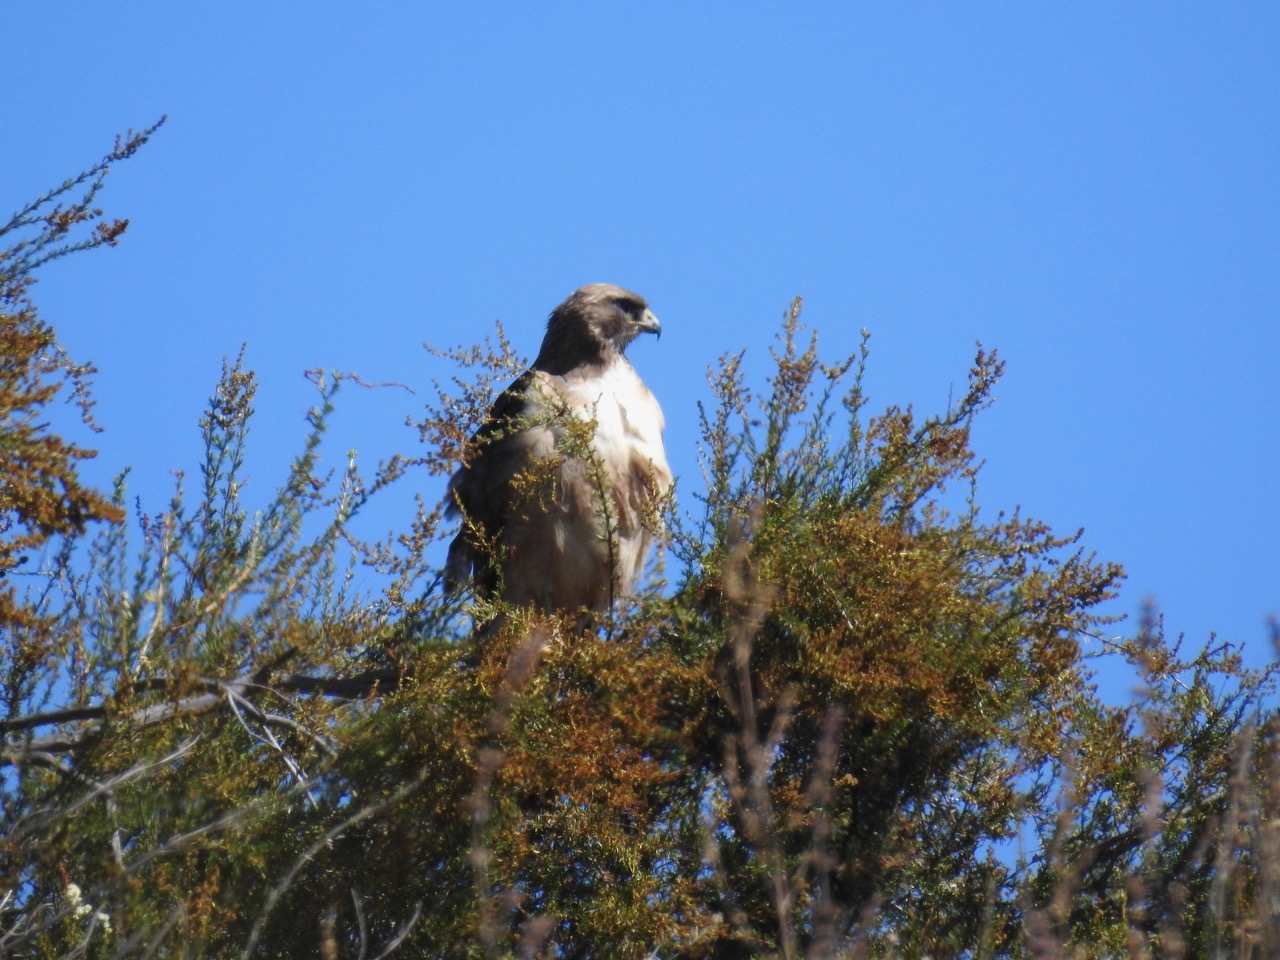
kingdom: Animalia
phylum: Chordata
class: Aves
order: Accipitriformes
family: Accipitridae
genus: Buteo
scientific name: Buteo jamaicensis
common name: Red-tailed hawk
